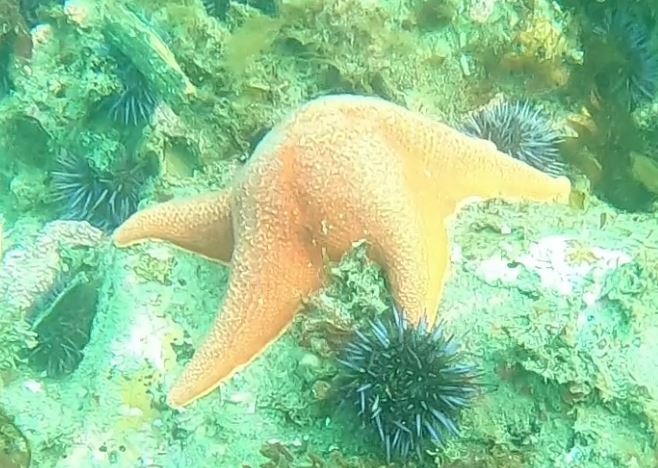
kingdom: Animalia
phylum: Echinodermata
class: Asteroidea
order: Valvatida
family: Asterinidae
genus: Patiria
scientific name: Patiria miniata
